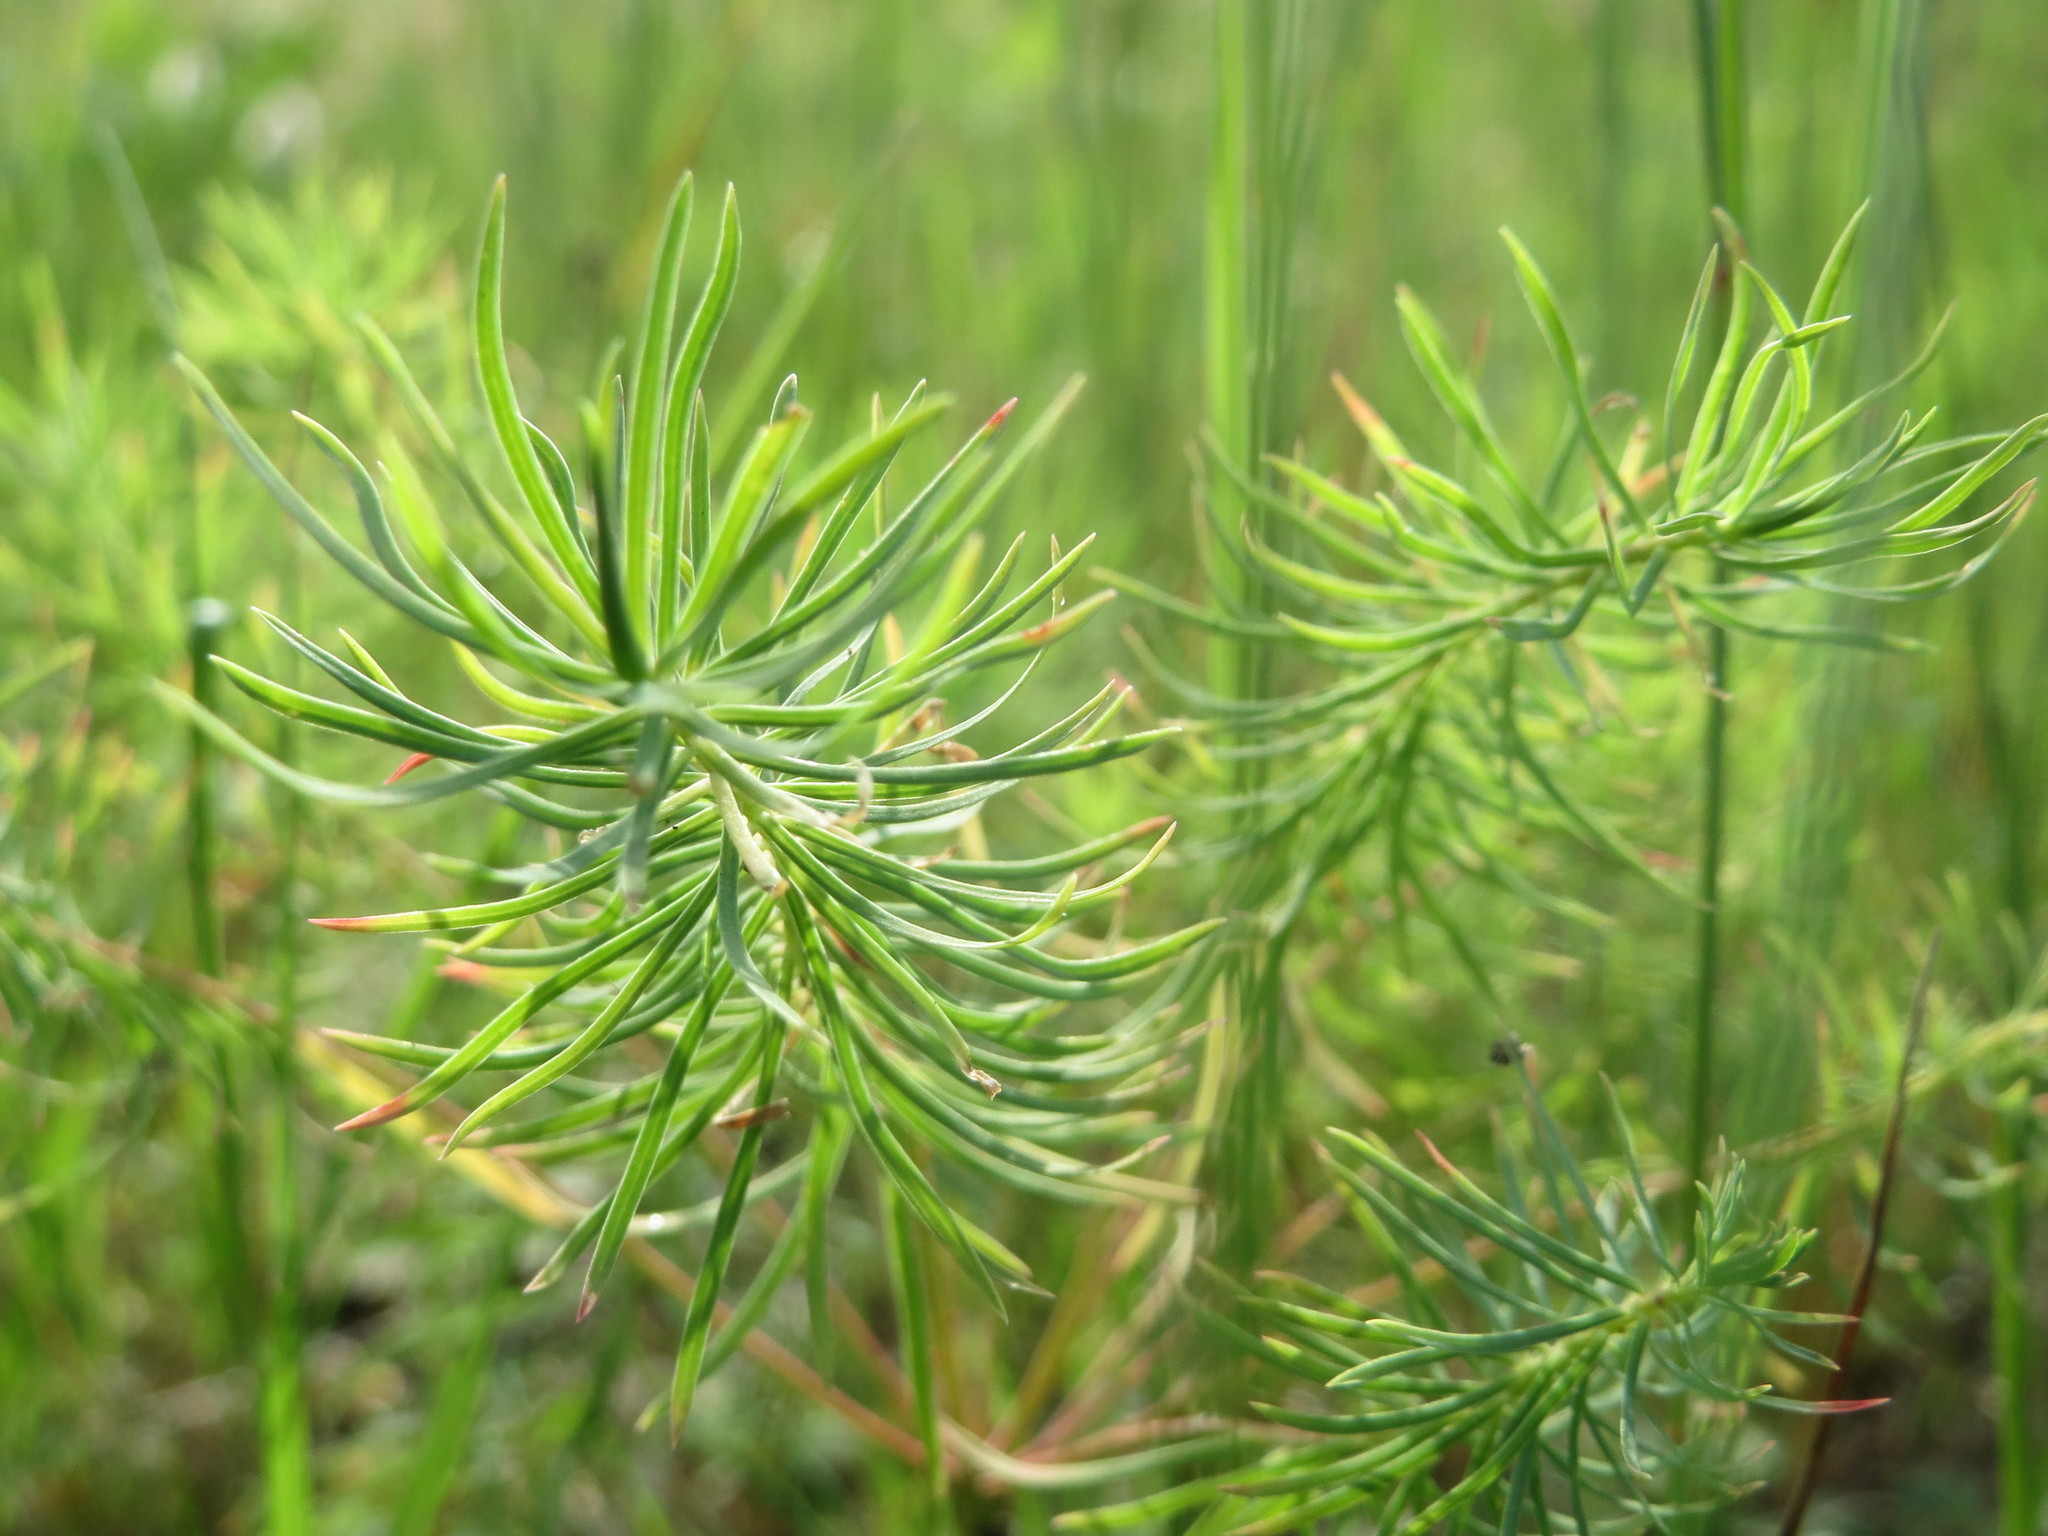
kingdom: Plantae
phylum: Tracheophyta
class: Magnoliopsida
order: Malpighiales
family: Euphorbiaceae
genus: Euphorbia
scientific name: Euphorbia cyparissias
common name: Cypress spurge
